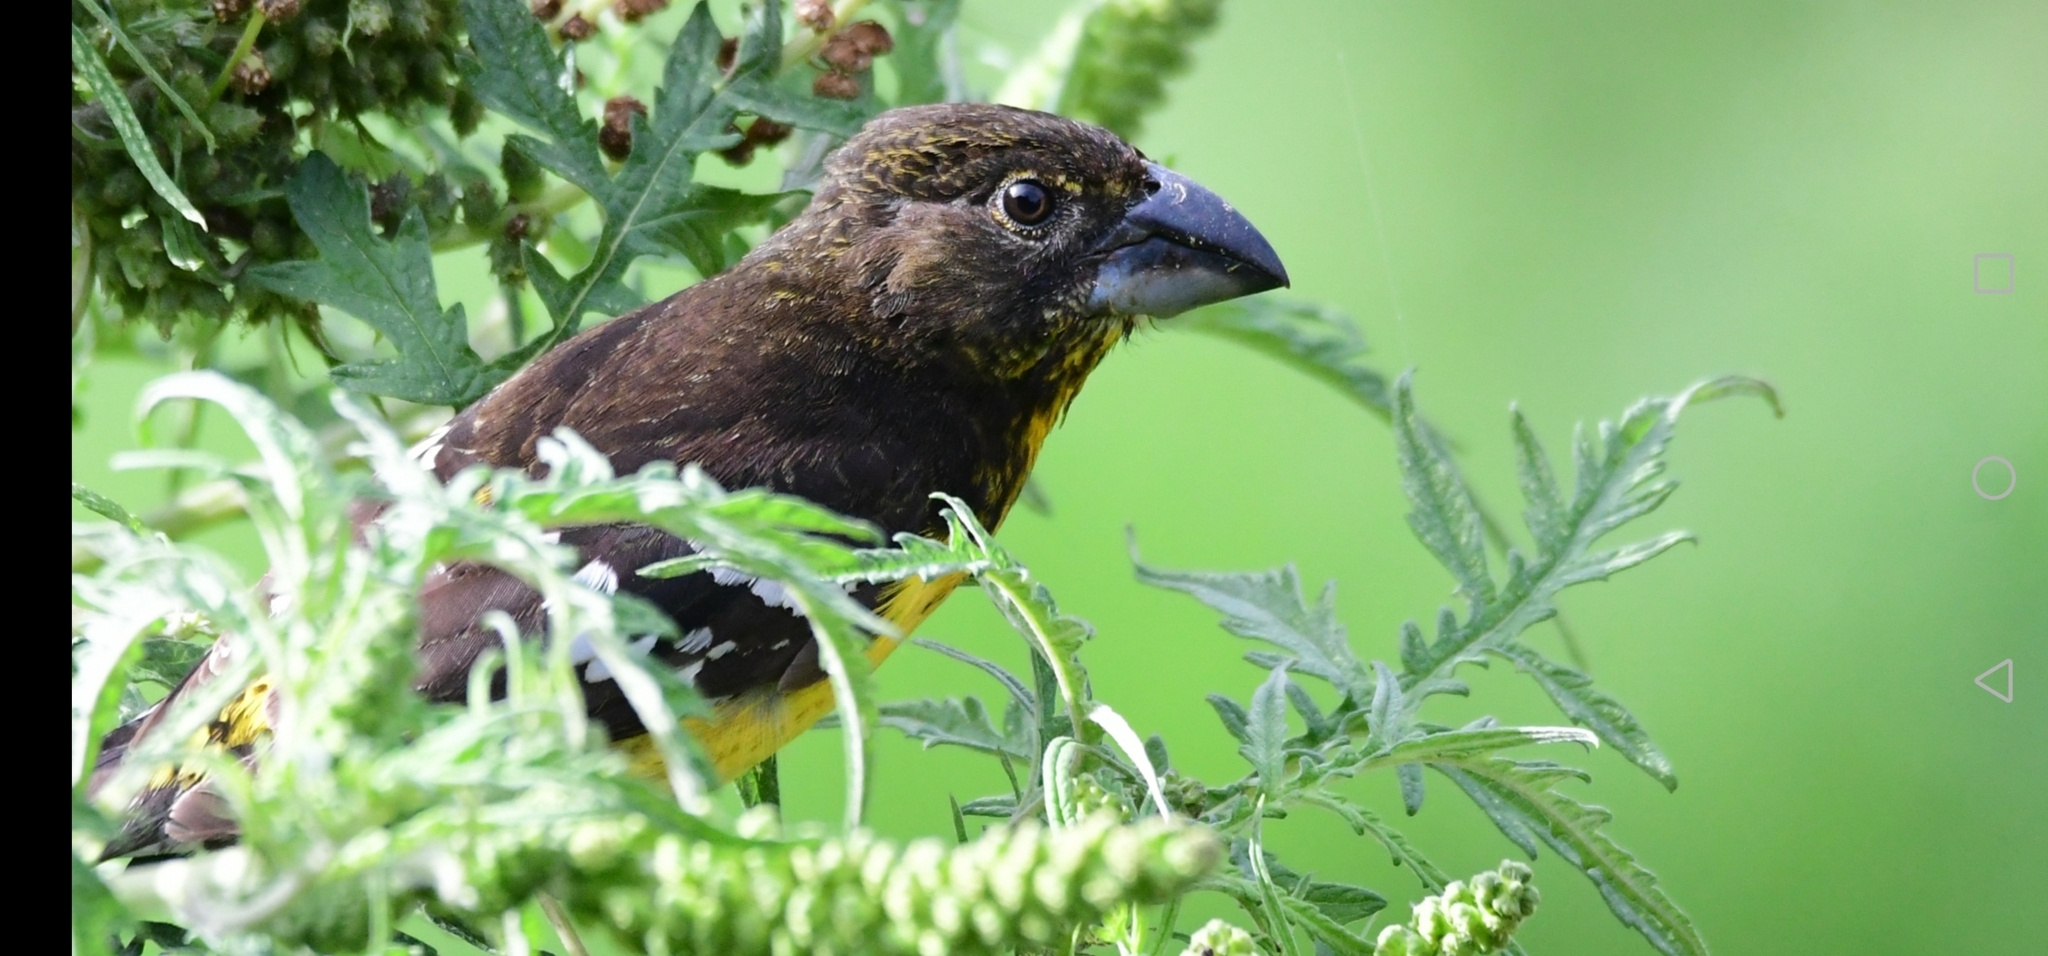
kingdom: Animalia
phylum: Chordata
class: Aves
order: Passeriformes
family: Cardinalidae
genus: Pheucticus
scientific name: Pheucticus aureoventris
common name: Black-backed grosbeak
